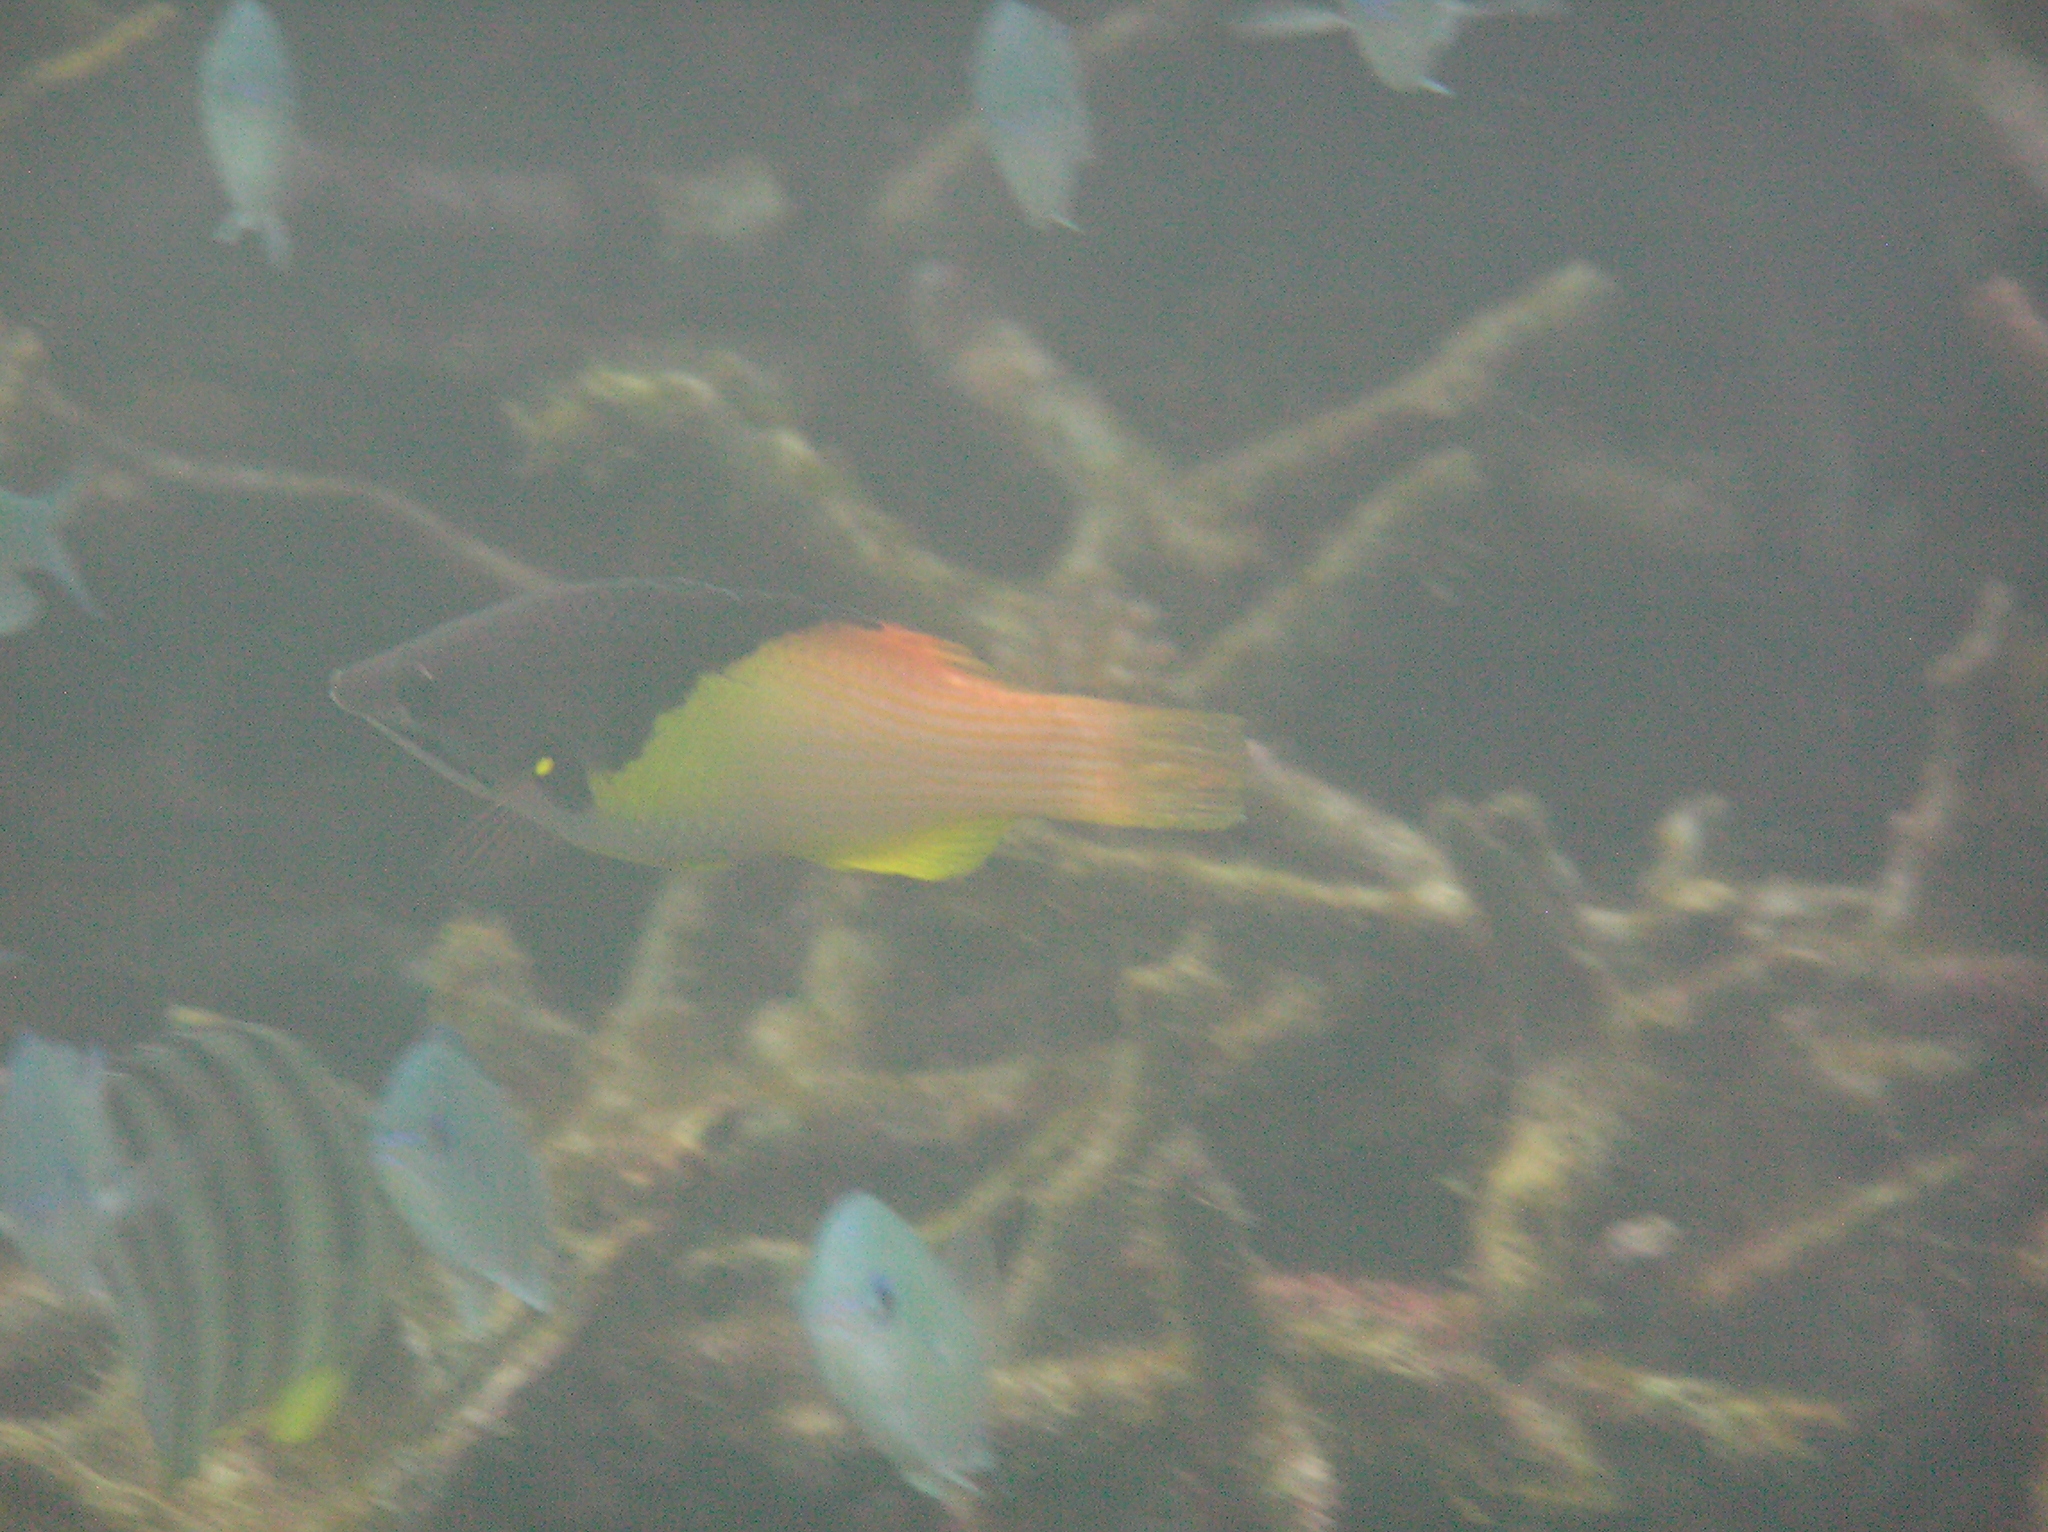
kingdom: Animalia
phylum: Chordata
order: Perciformes
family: Labridae
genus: Bodianus
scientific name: Bodianus mesothorax
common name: Coral hogfish
